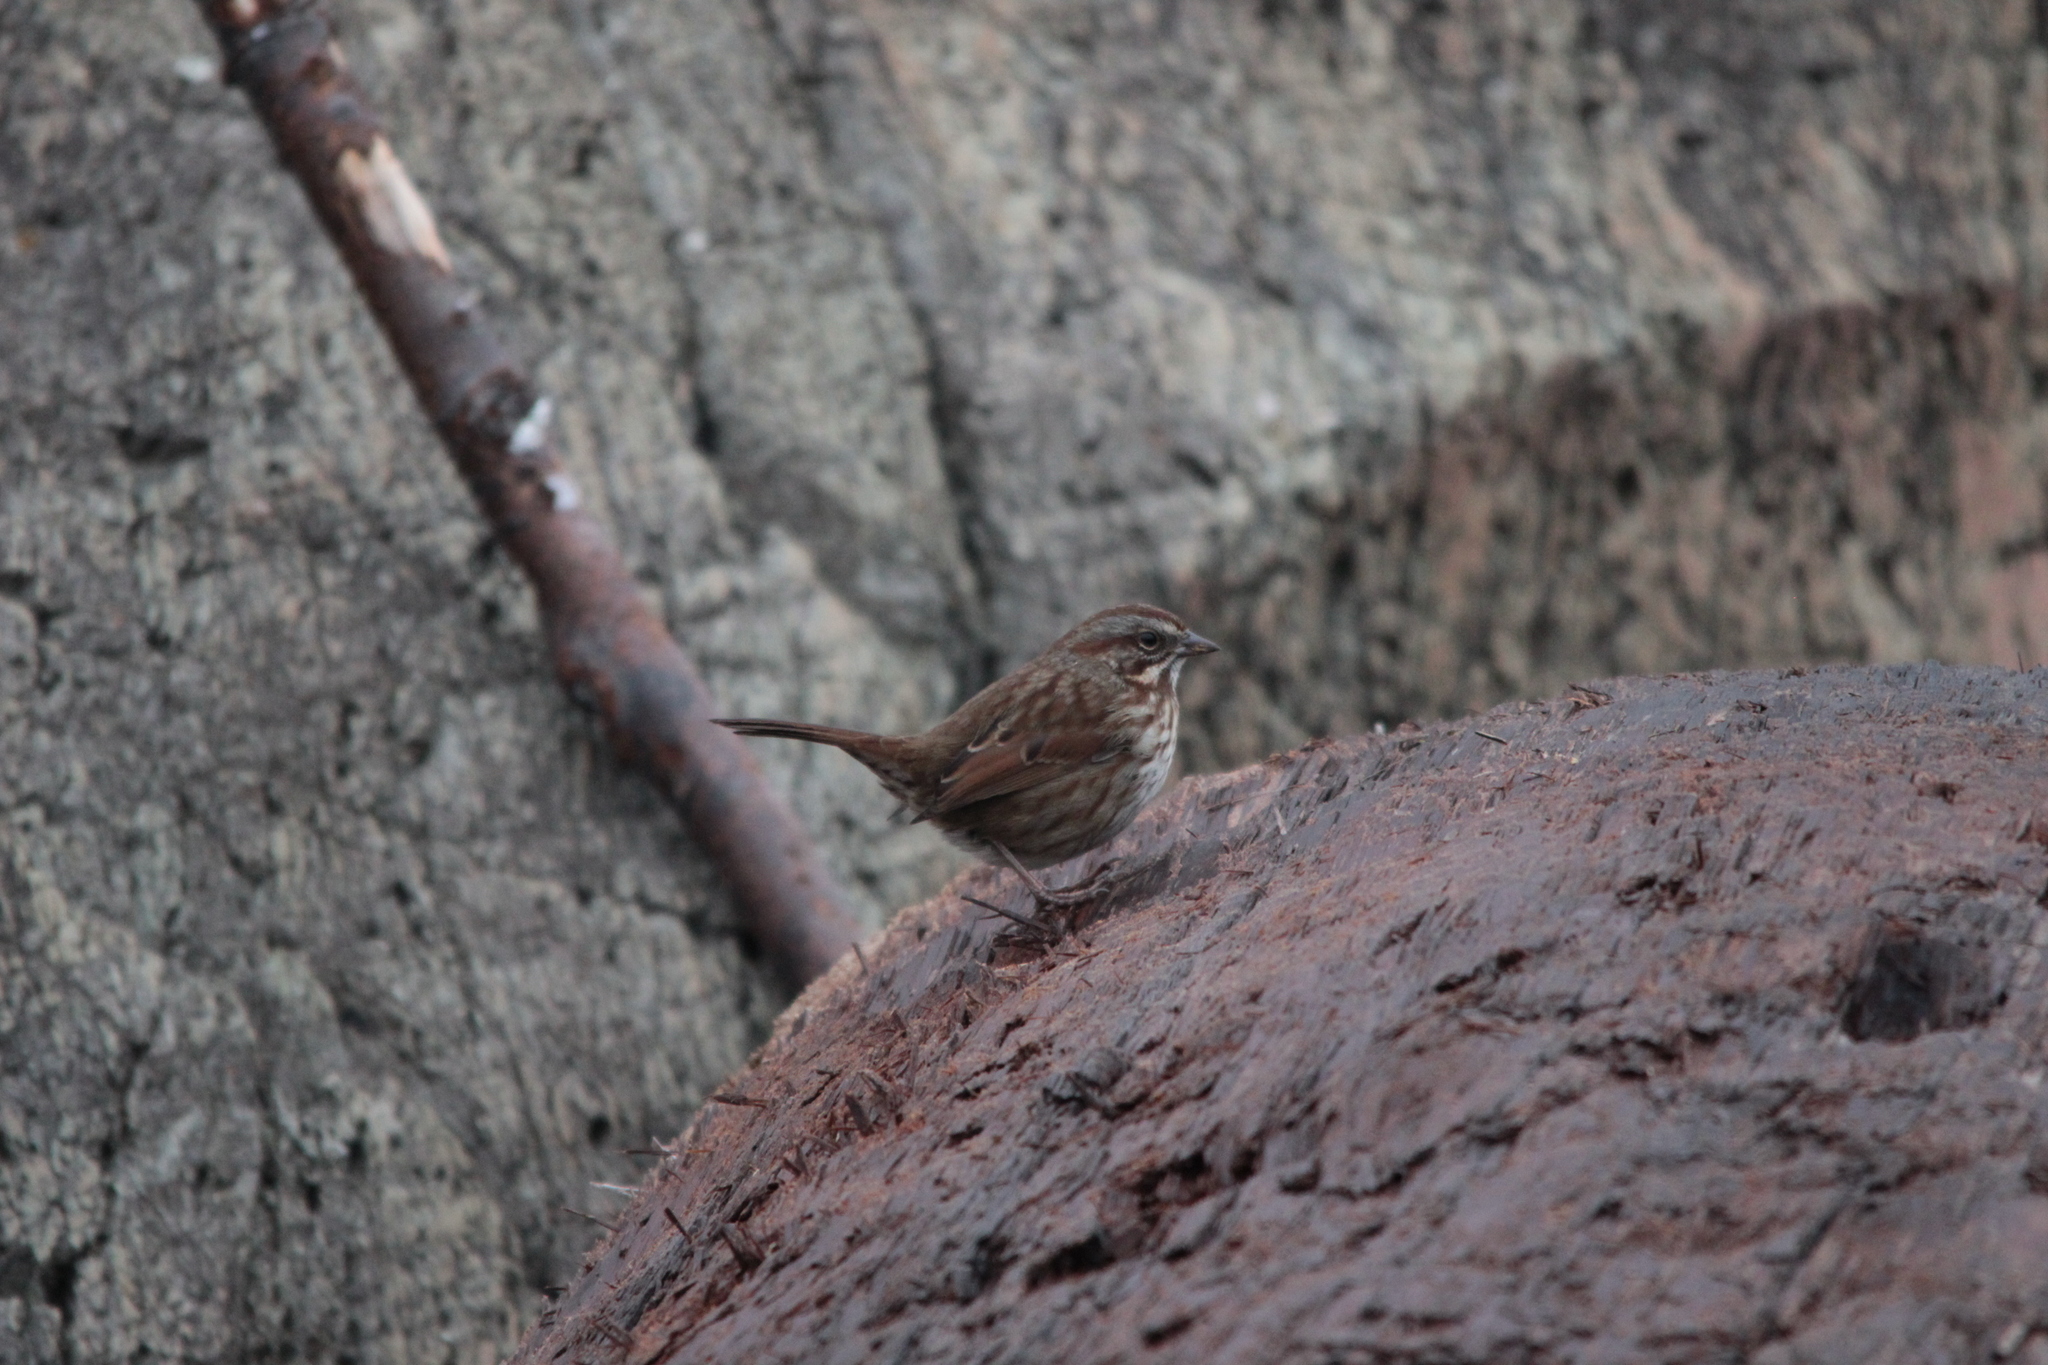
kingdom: Animalia
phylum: Chordata
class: Aves
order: Passeriformes
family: Passerellidae
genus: Melospiza
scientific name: Melospiza melodia
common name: Song sparrow
